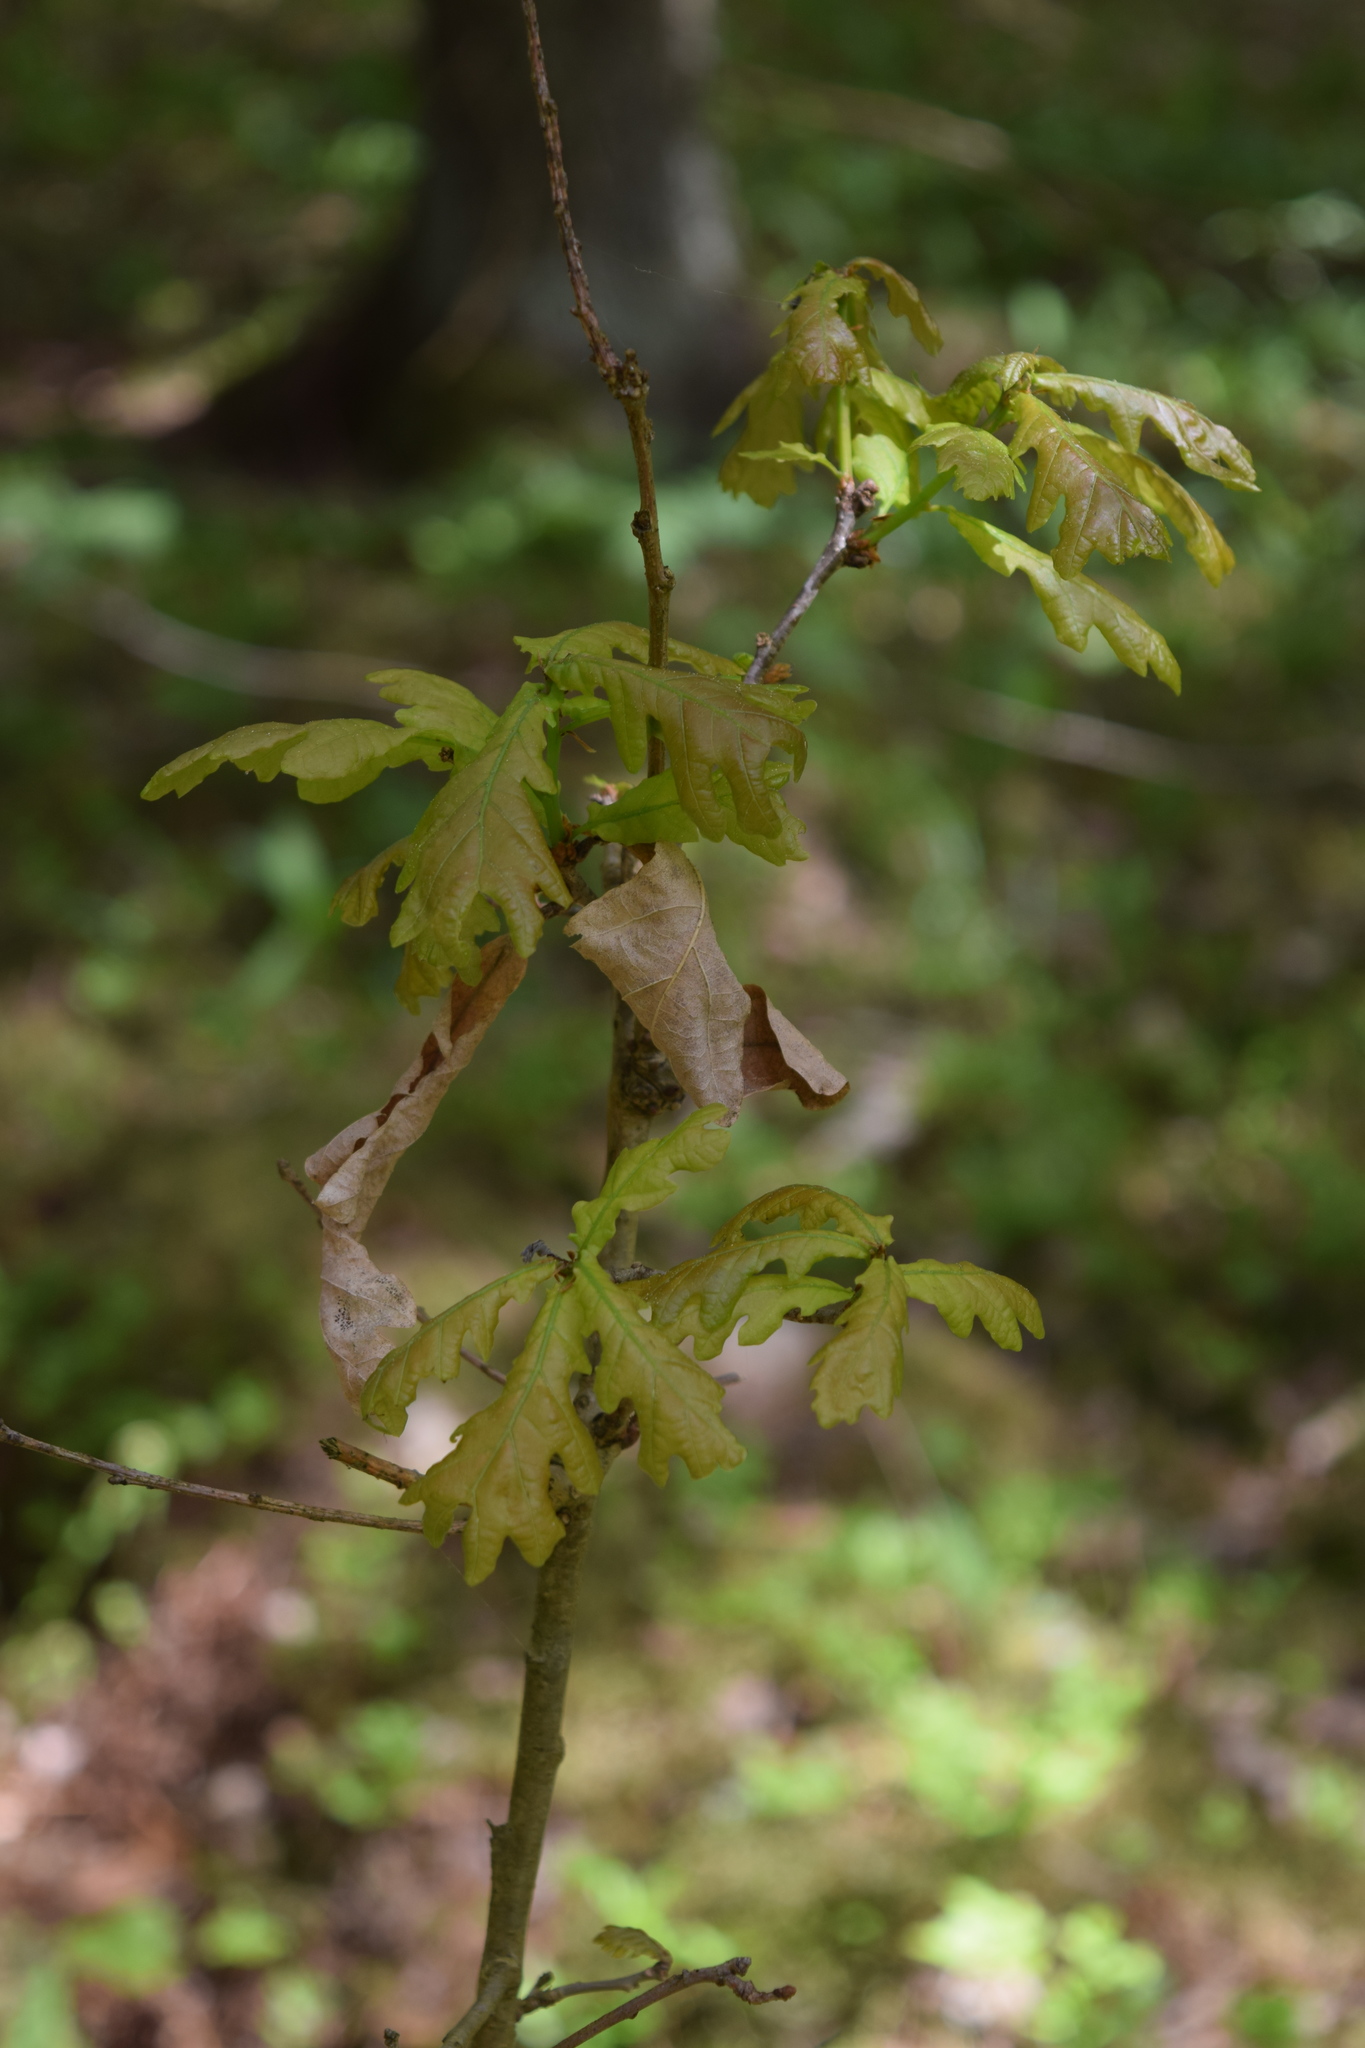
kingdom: Plantae
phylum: Tracheophyta
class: Magnoliopsida
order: Fagales
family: Fagaceae
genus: Quercus
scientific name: Quercus robur
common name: Pedunculate oak
